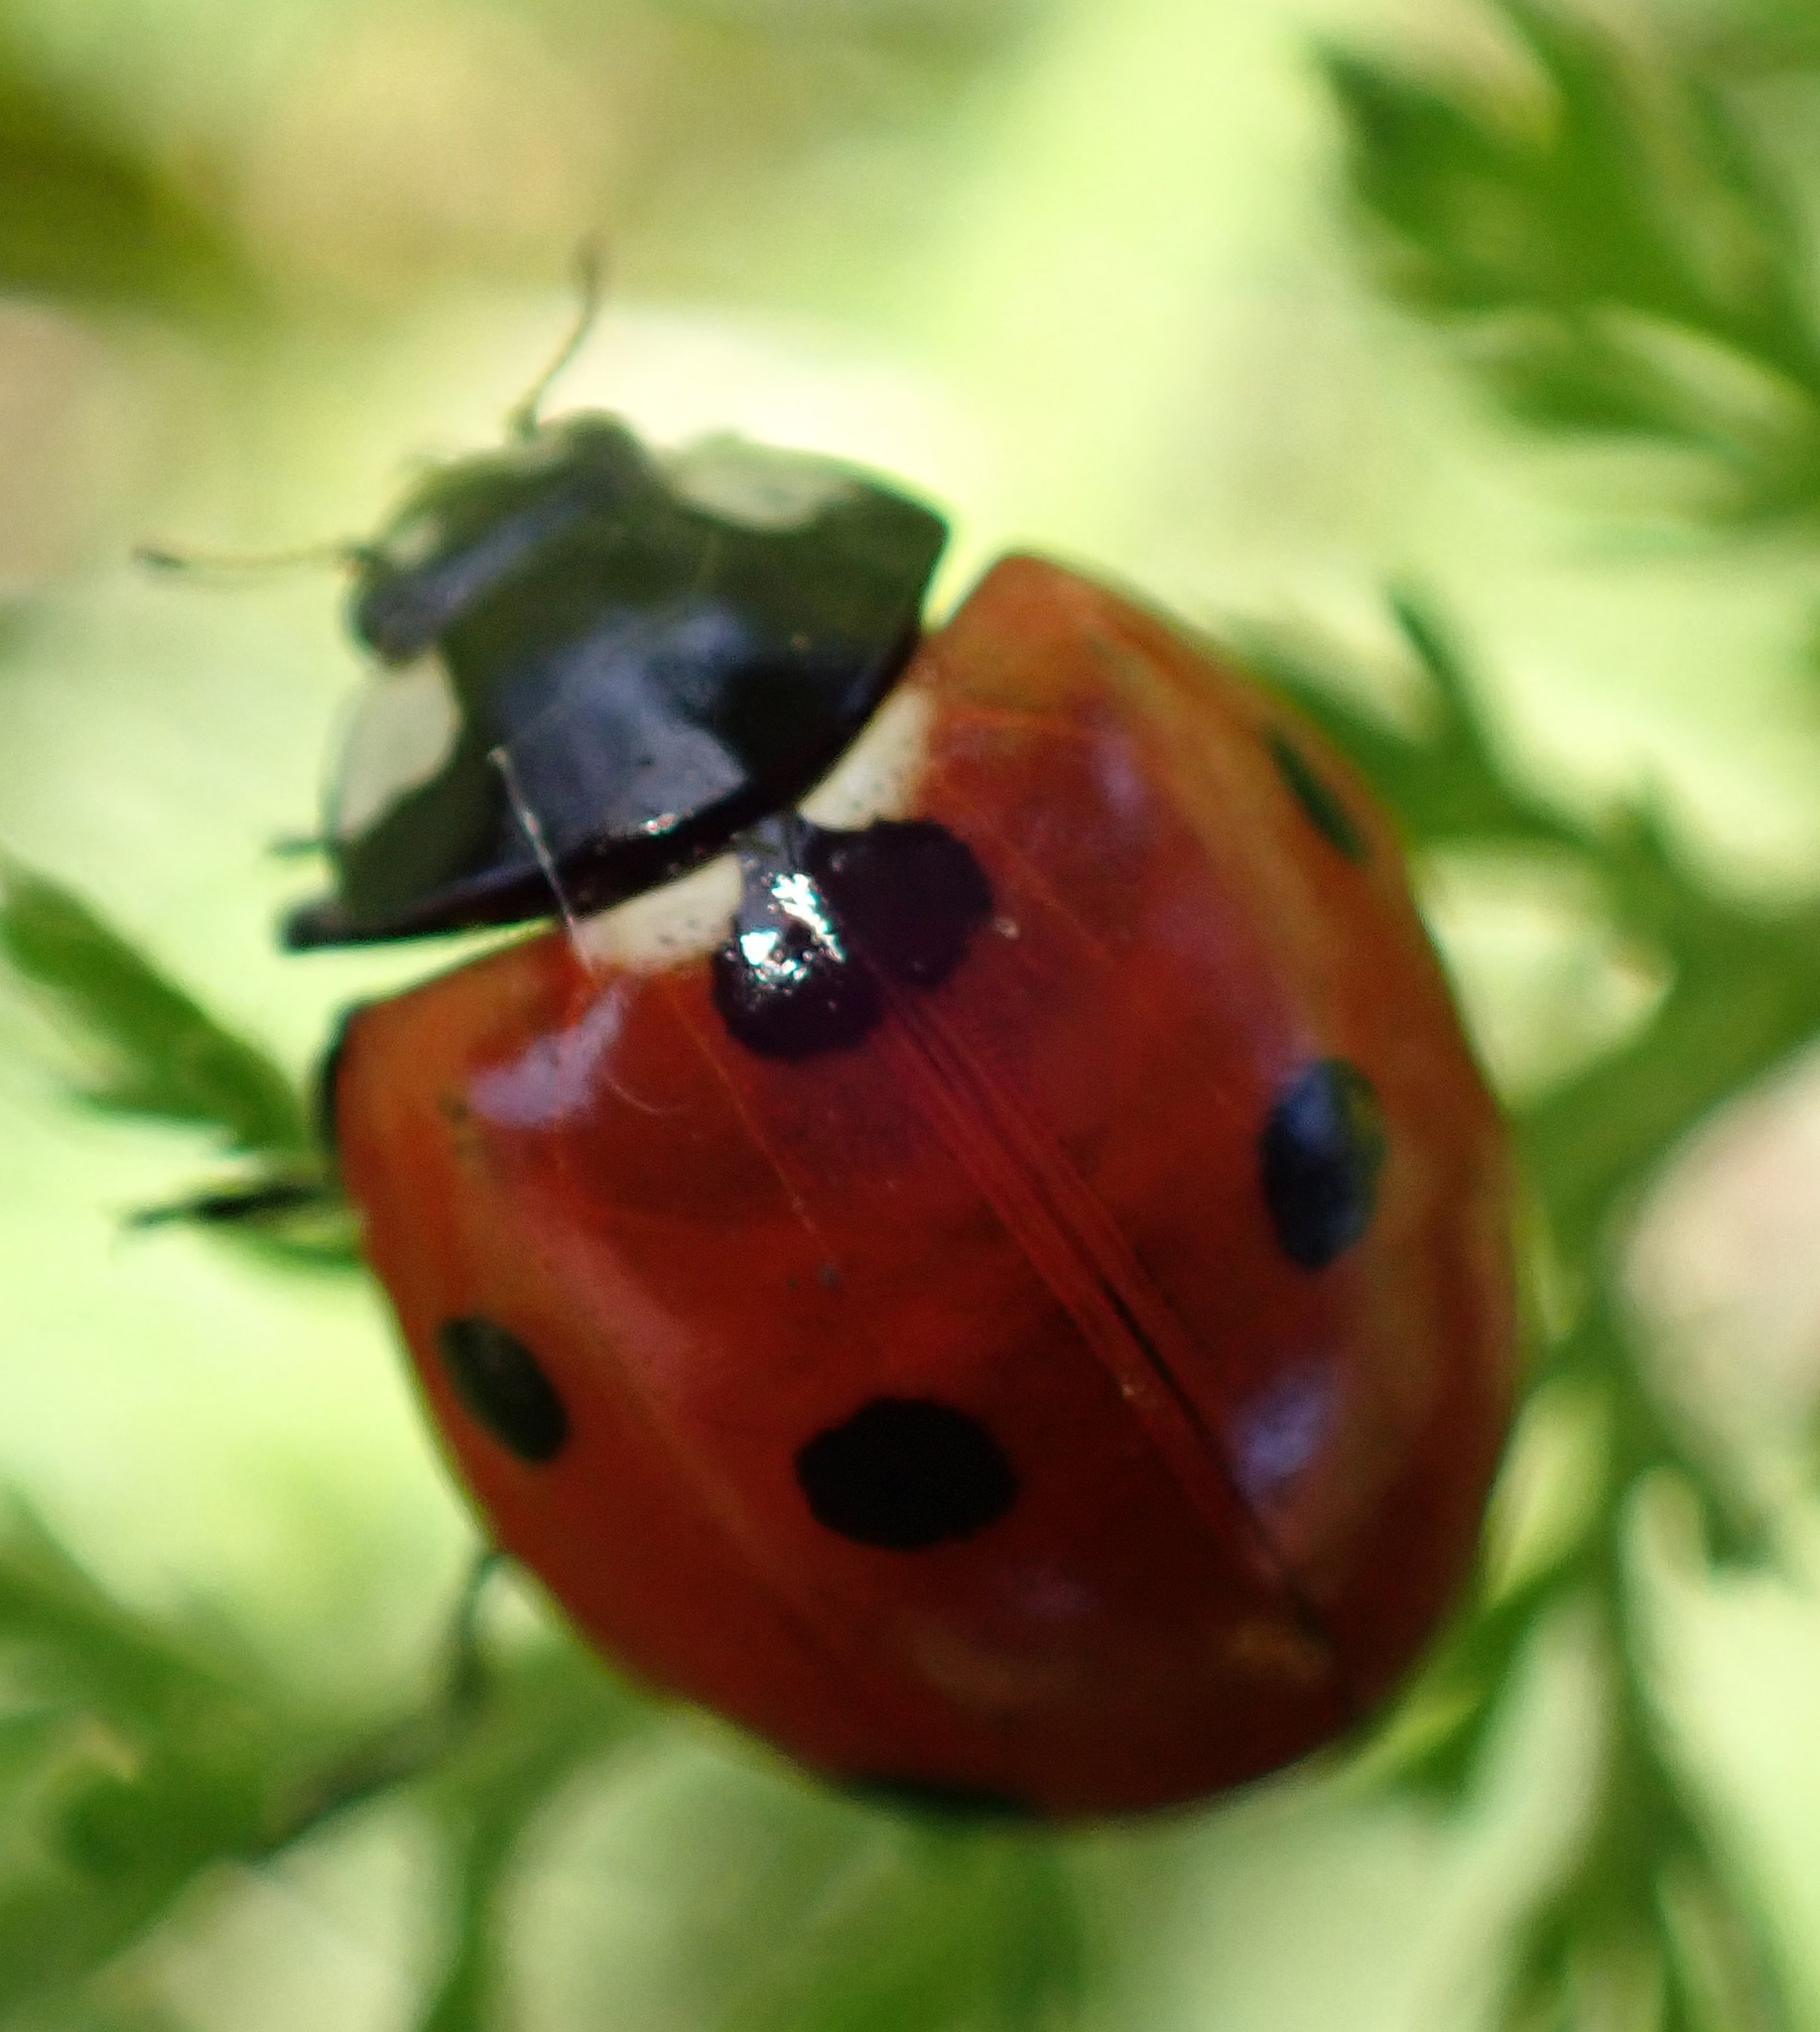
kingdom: Animalia
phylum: Arthropoda
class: Insecta
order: Coleoptera
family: Coccinellidae
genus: Coccinella
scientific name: Coccinella septempunctata
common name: Sevenspotted lady beetle
